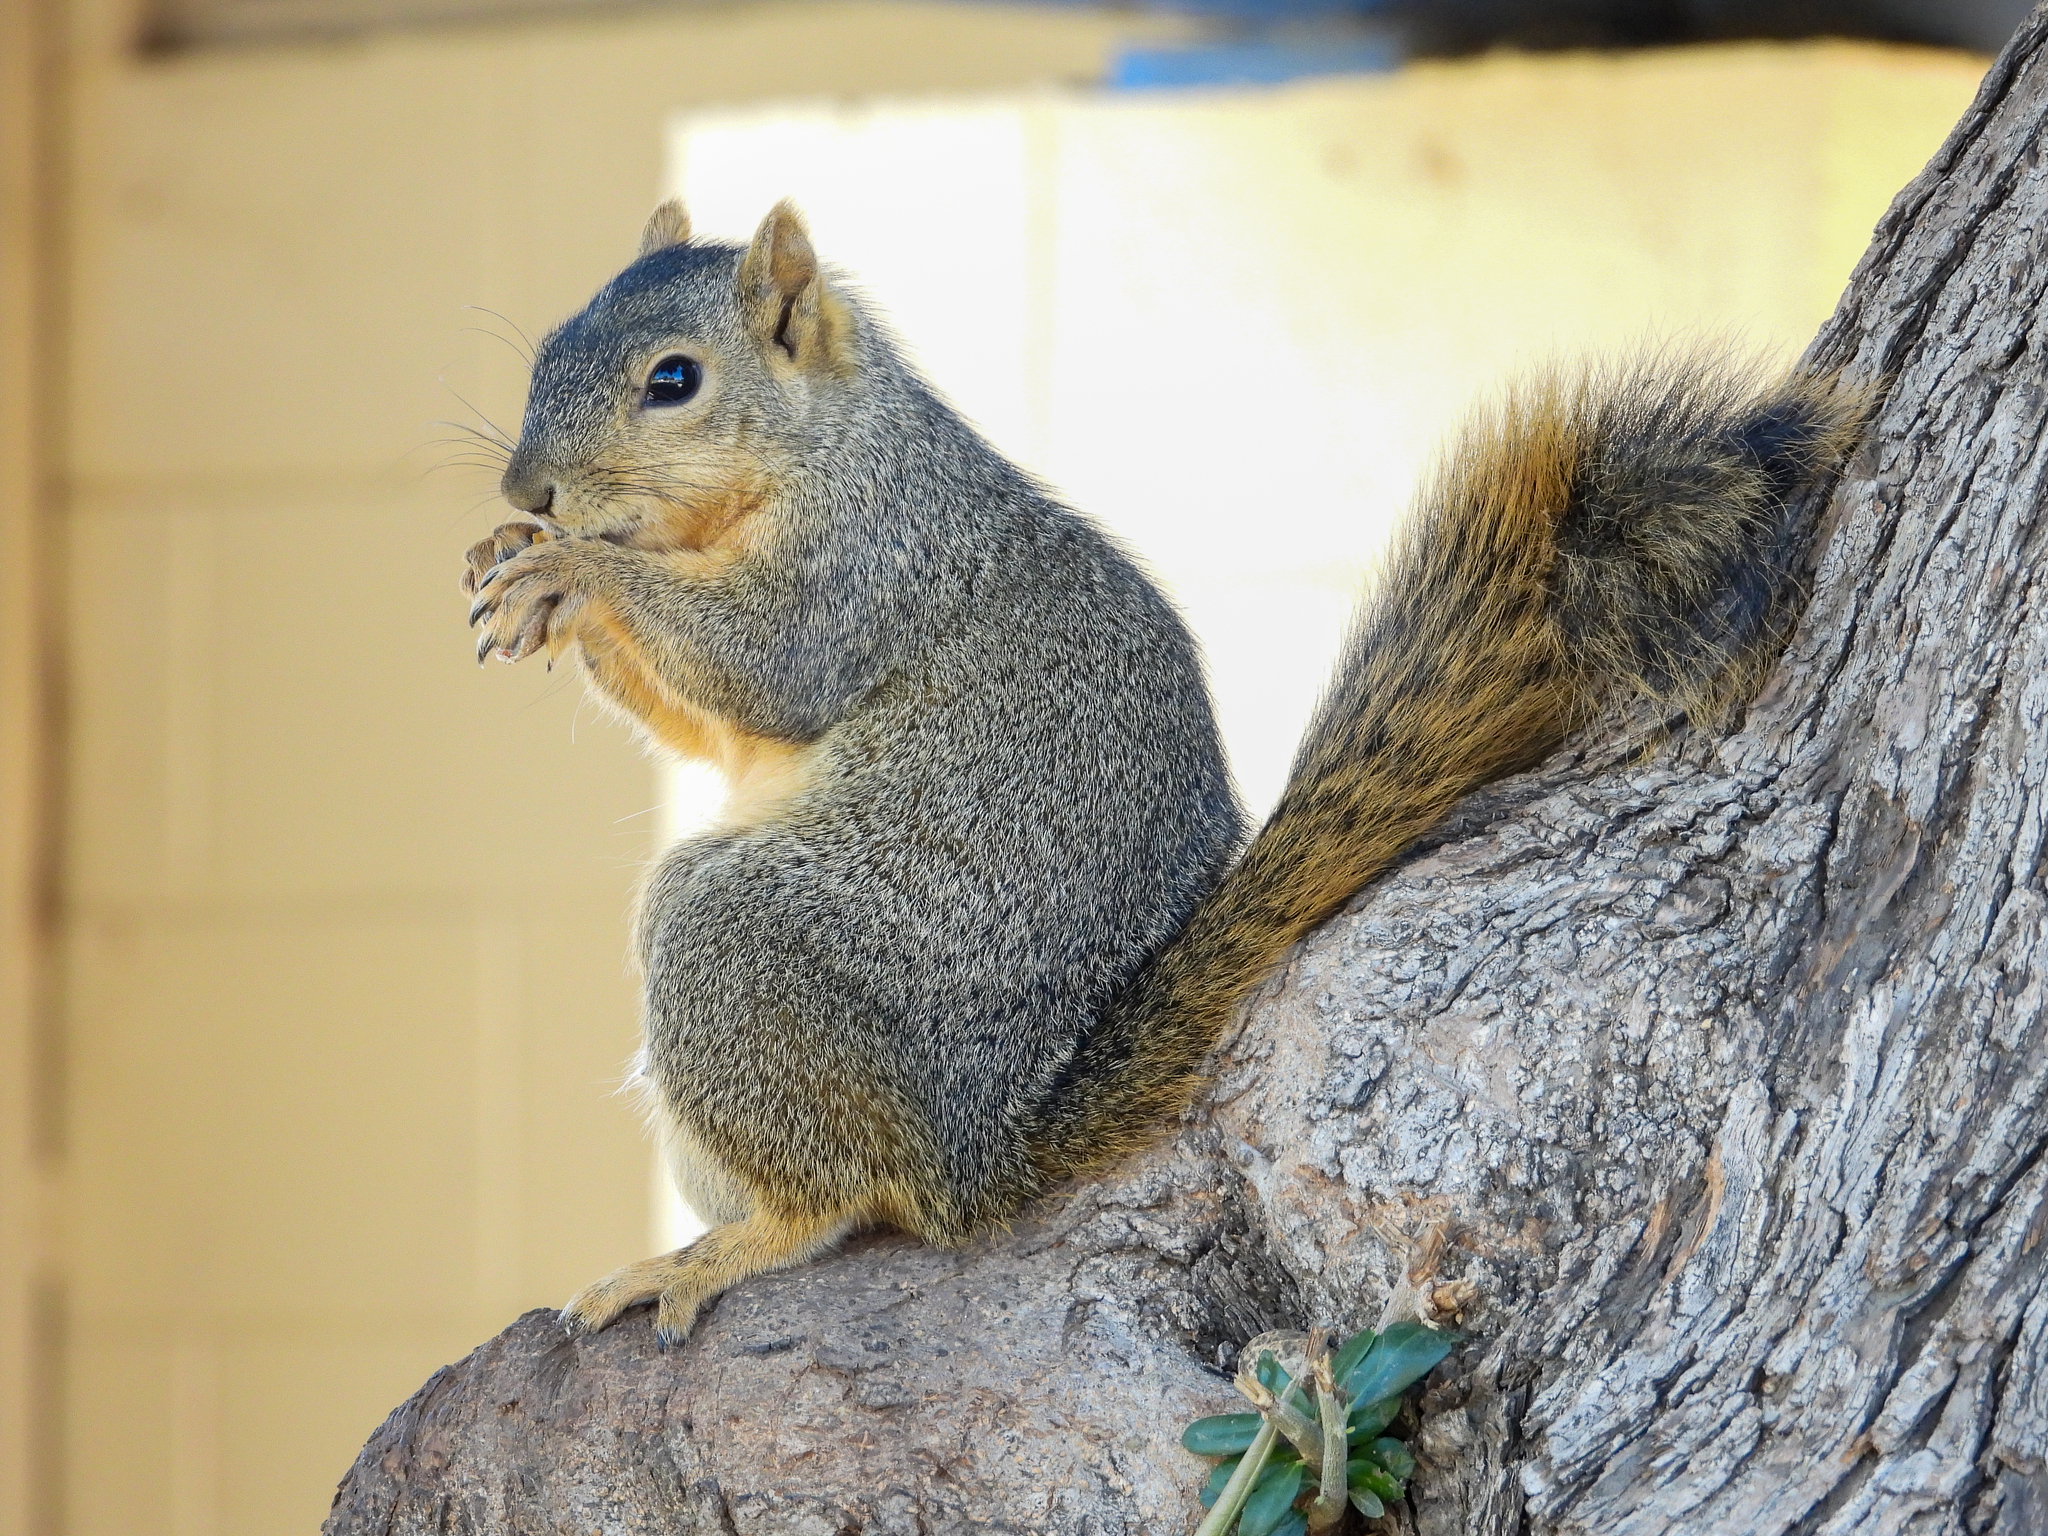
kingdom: Animalia
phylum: Chordata
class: Mammalia
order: Rodentia
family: Sciuridae
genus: Sciurus
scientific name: Sciurus niger
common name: Fox squirrel
